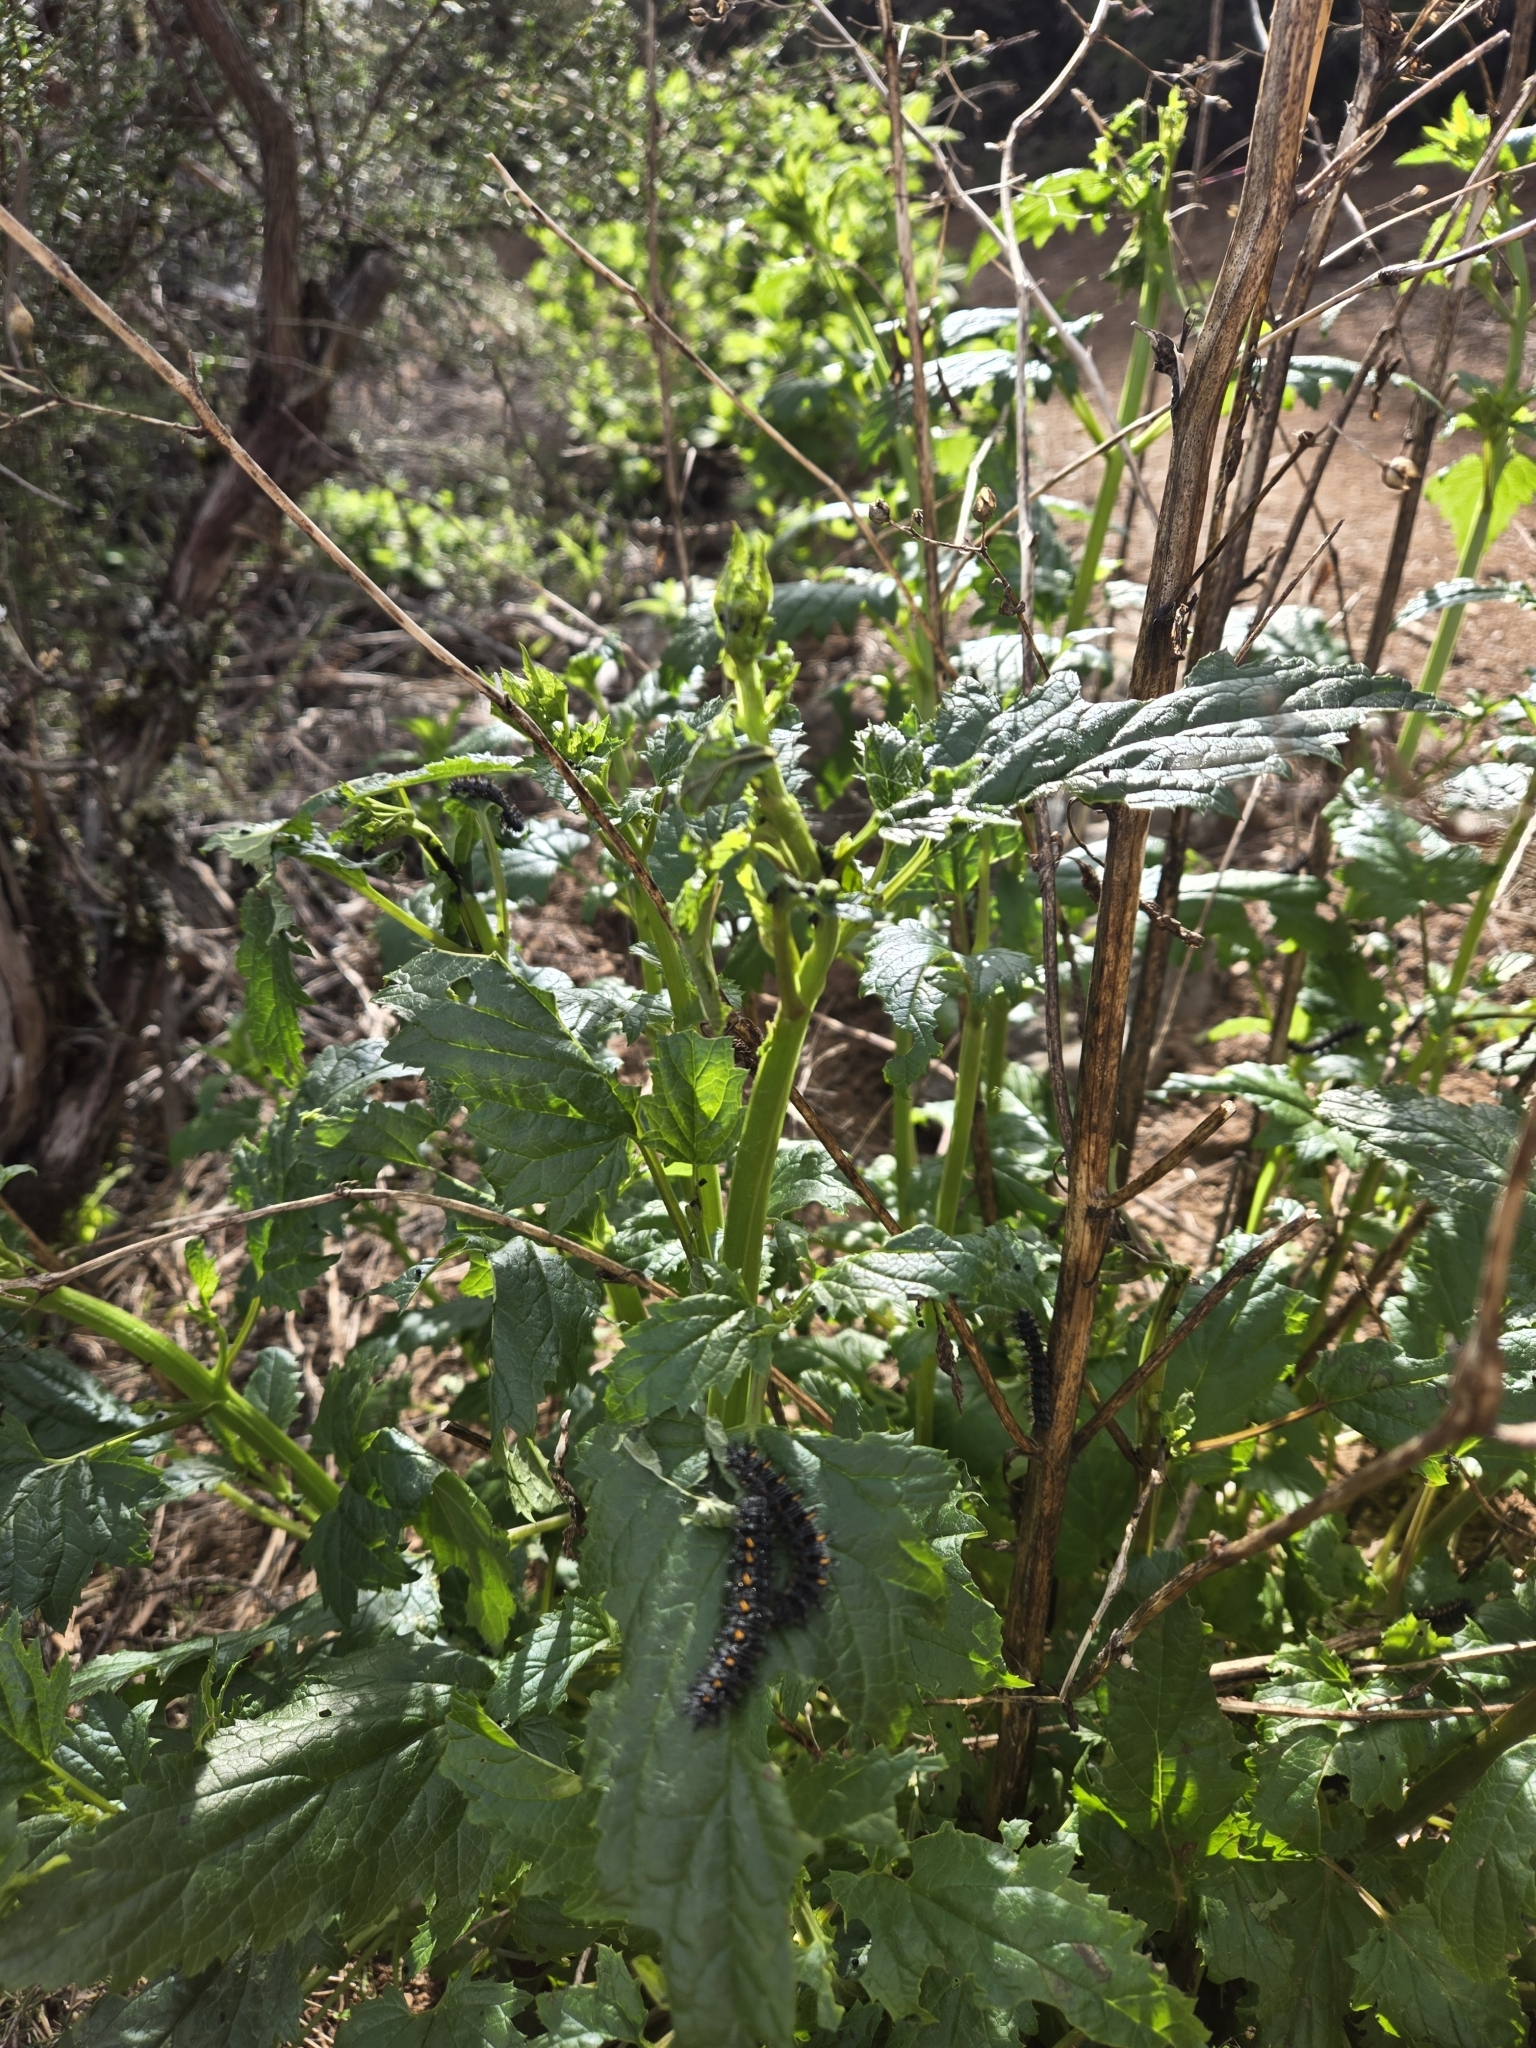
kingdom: Animalia
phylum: Arthropoda
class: Insecta
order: Lepidoptera
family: Nymphalidae
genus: Occidryas
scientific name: Occidryas chalcedona
